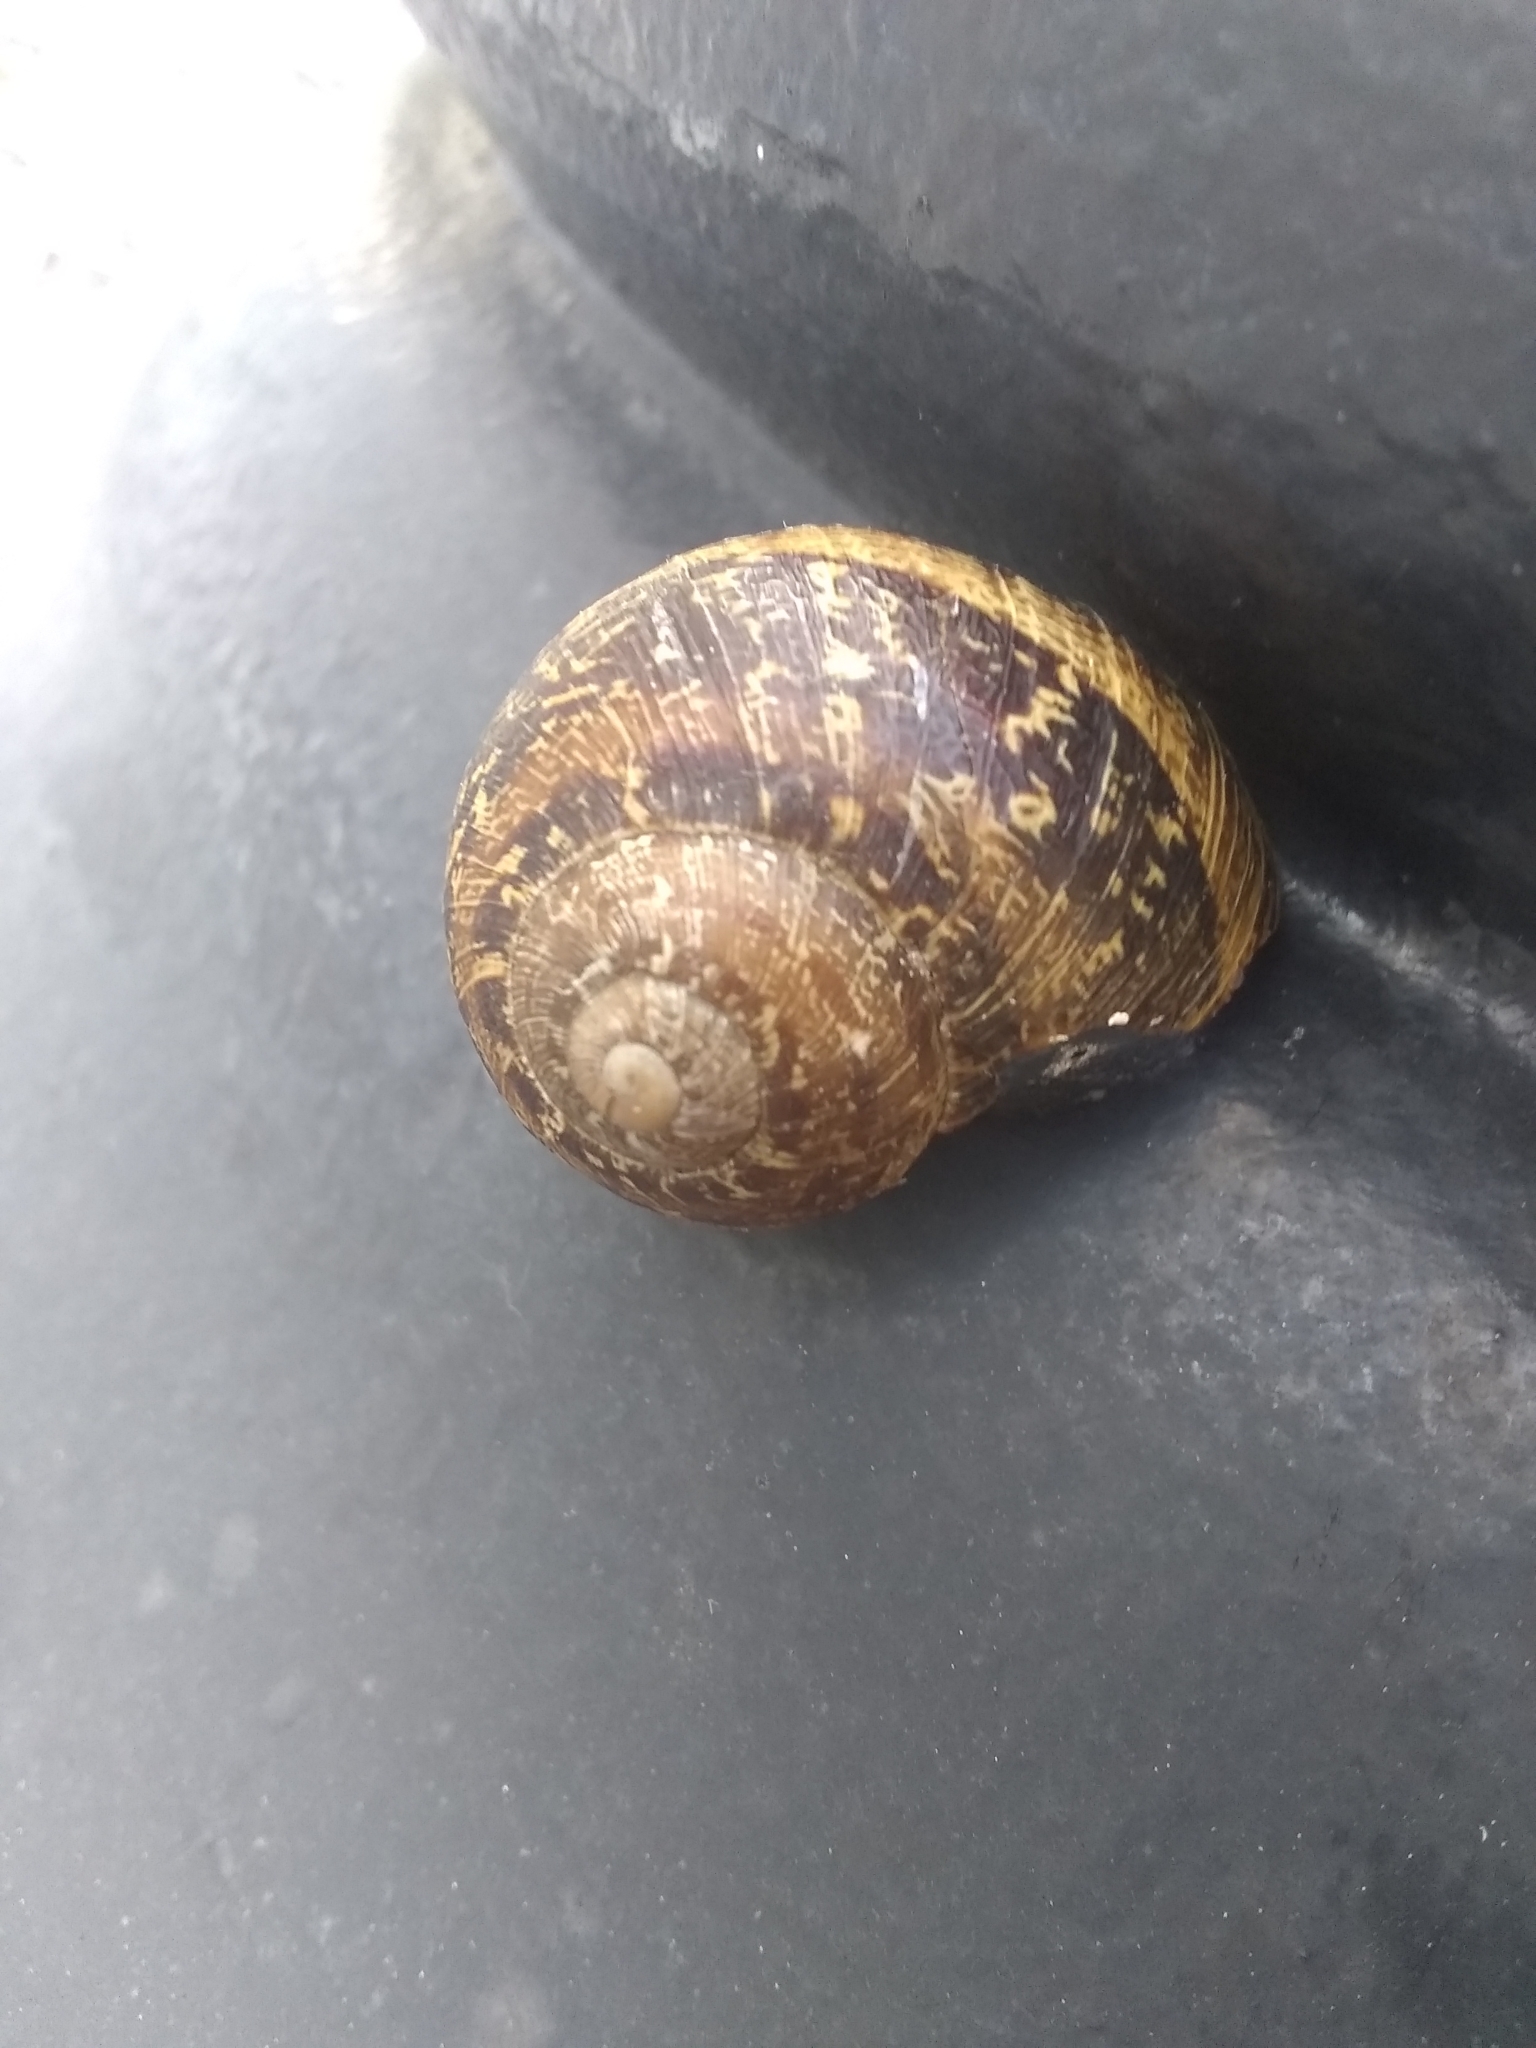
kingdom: Animalia
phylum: Mollusca
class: Gastropoda
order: Stylommatophora
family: Helicidae
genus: Cornu
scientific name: Cornu aspersum
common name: Brown garden snail
